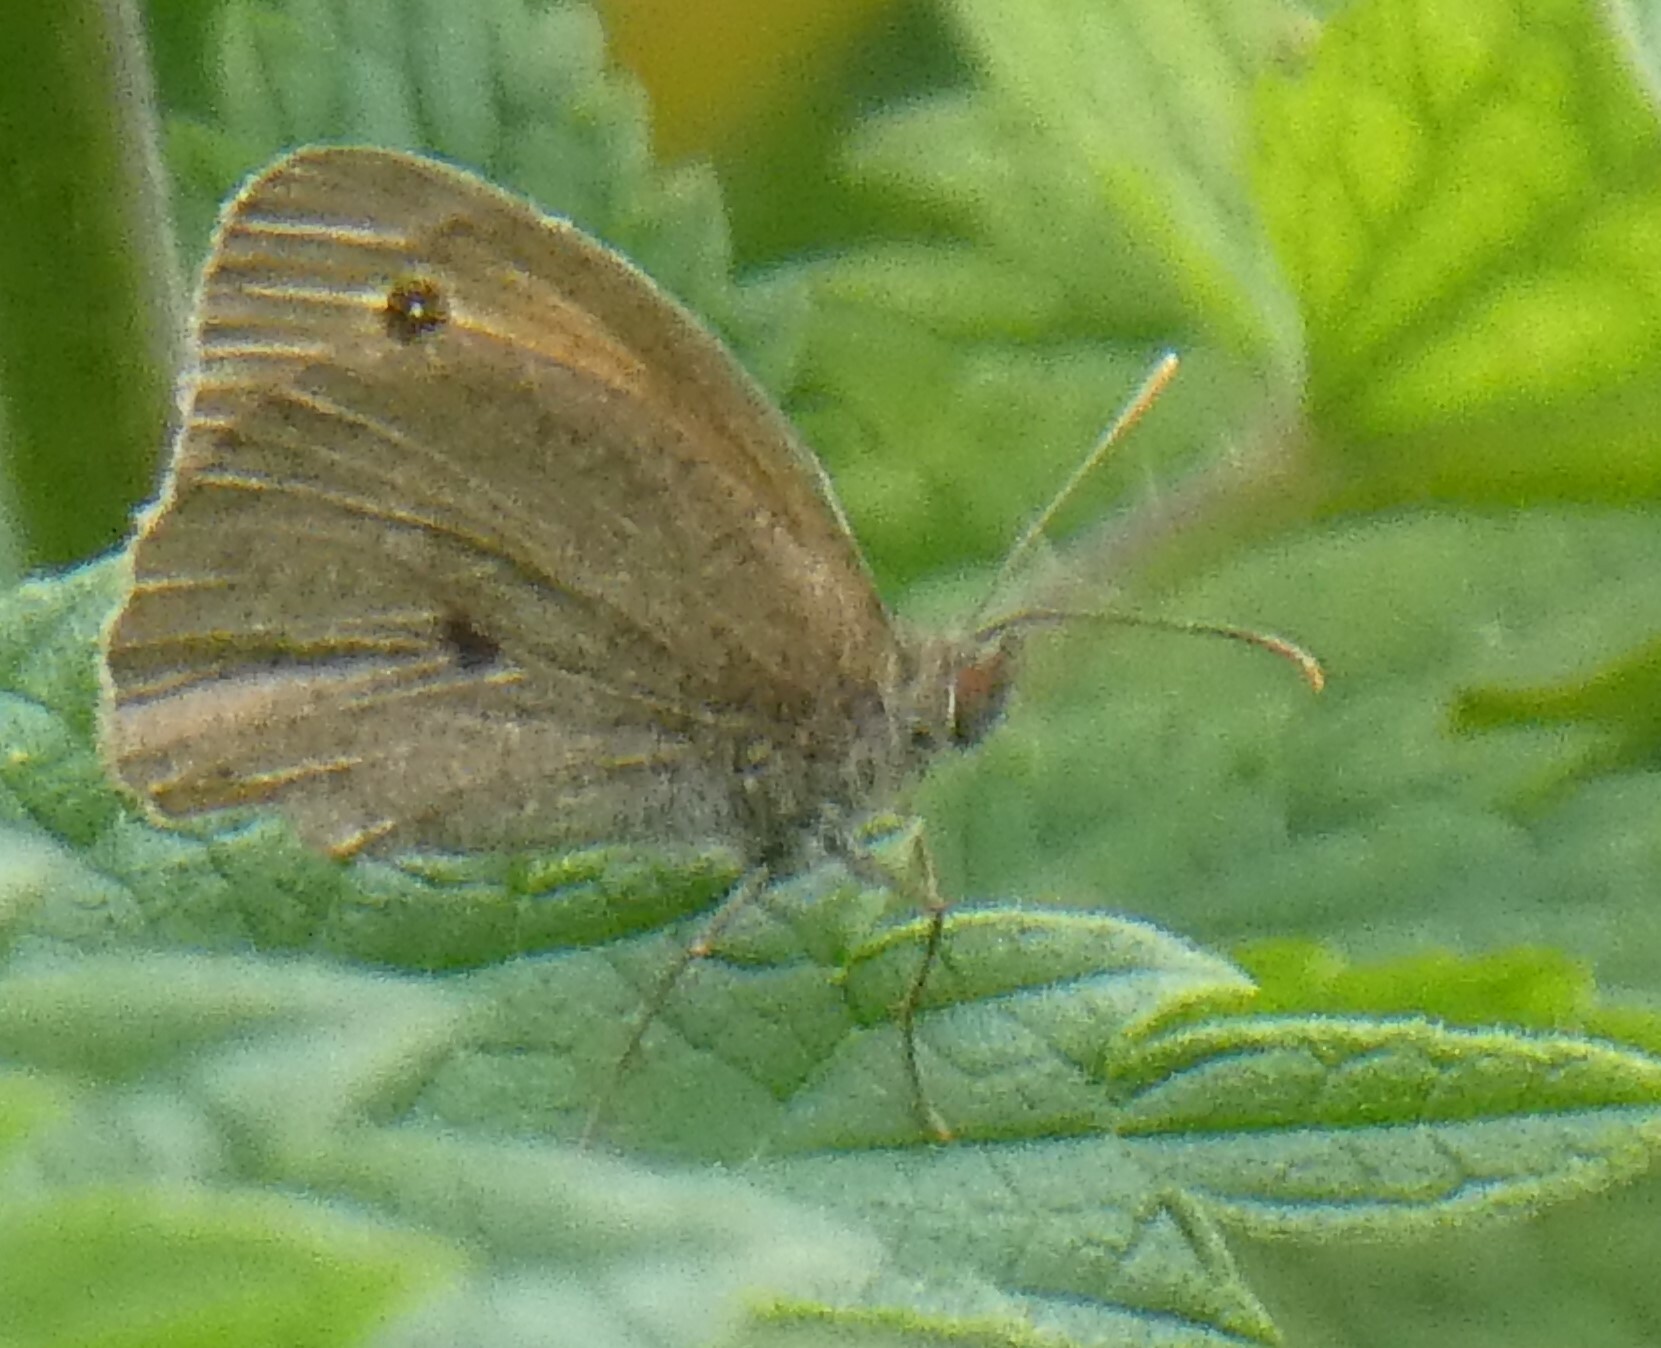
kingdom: Animalia
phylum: Arthropoda
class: Insecta
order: Lepidoptera
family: Nymphalidae
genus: Maniola
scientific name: Maniola jurtina
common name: Meadow brown
